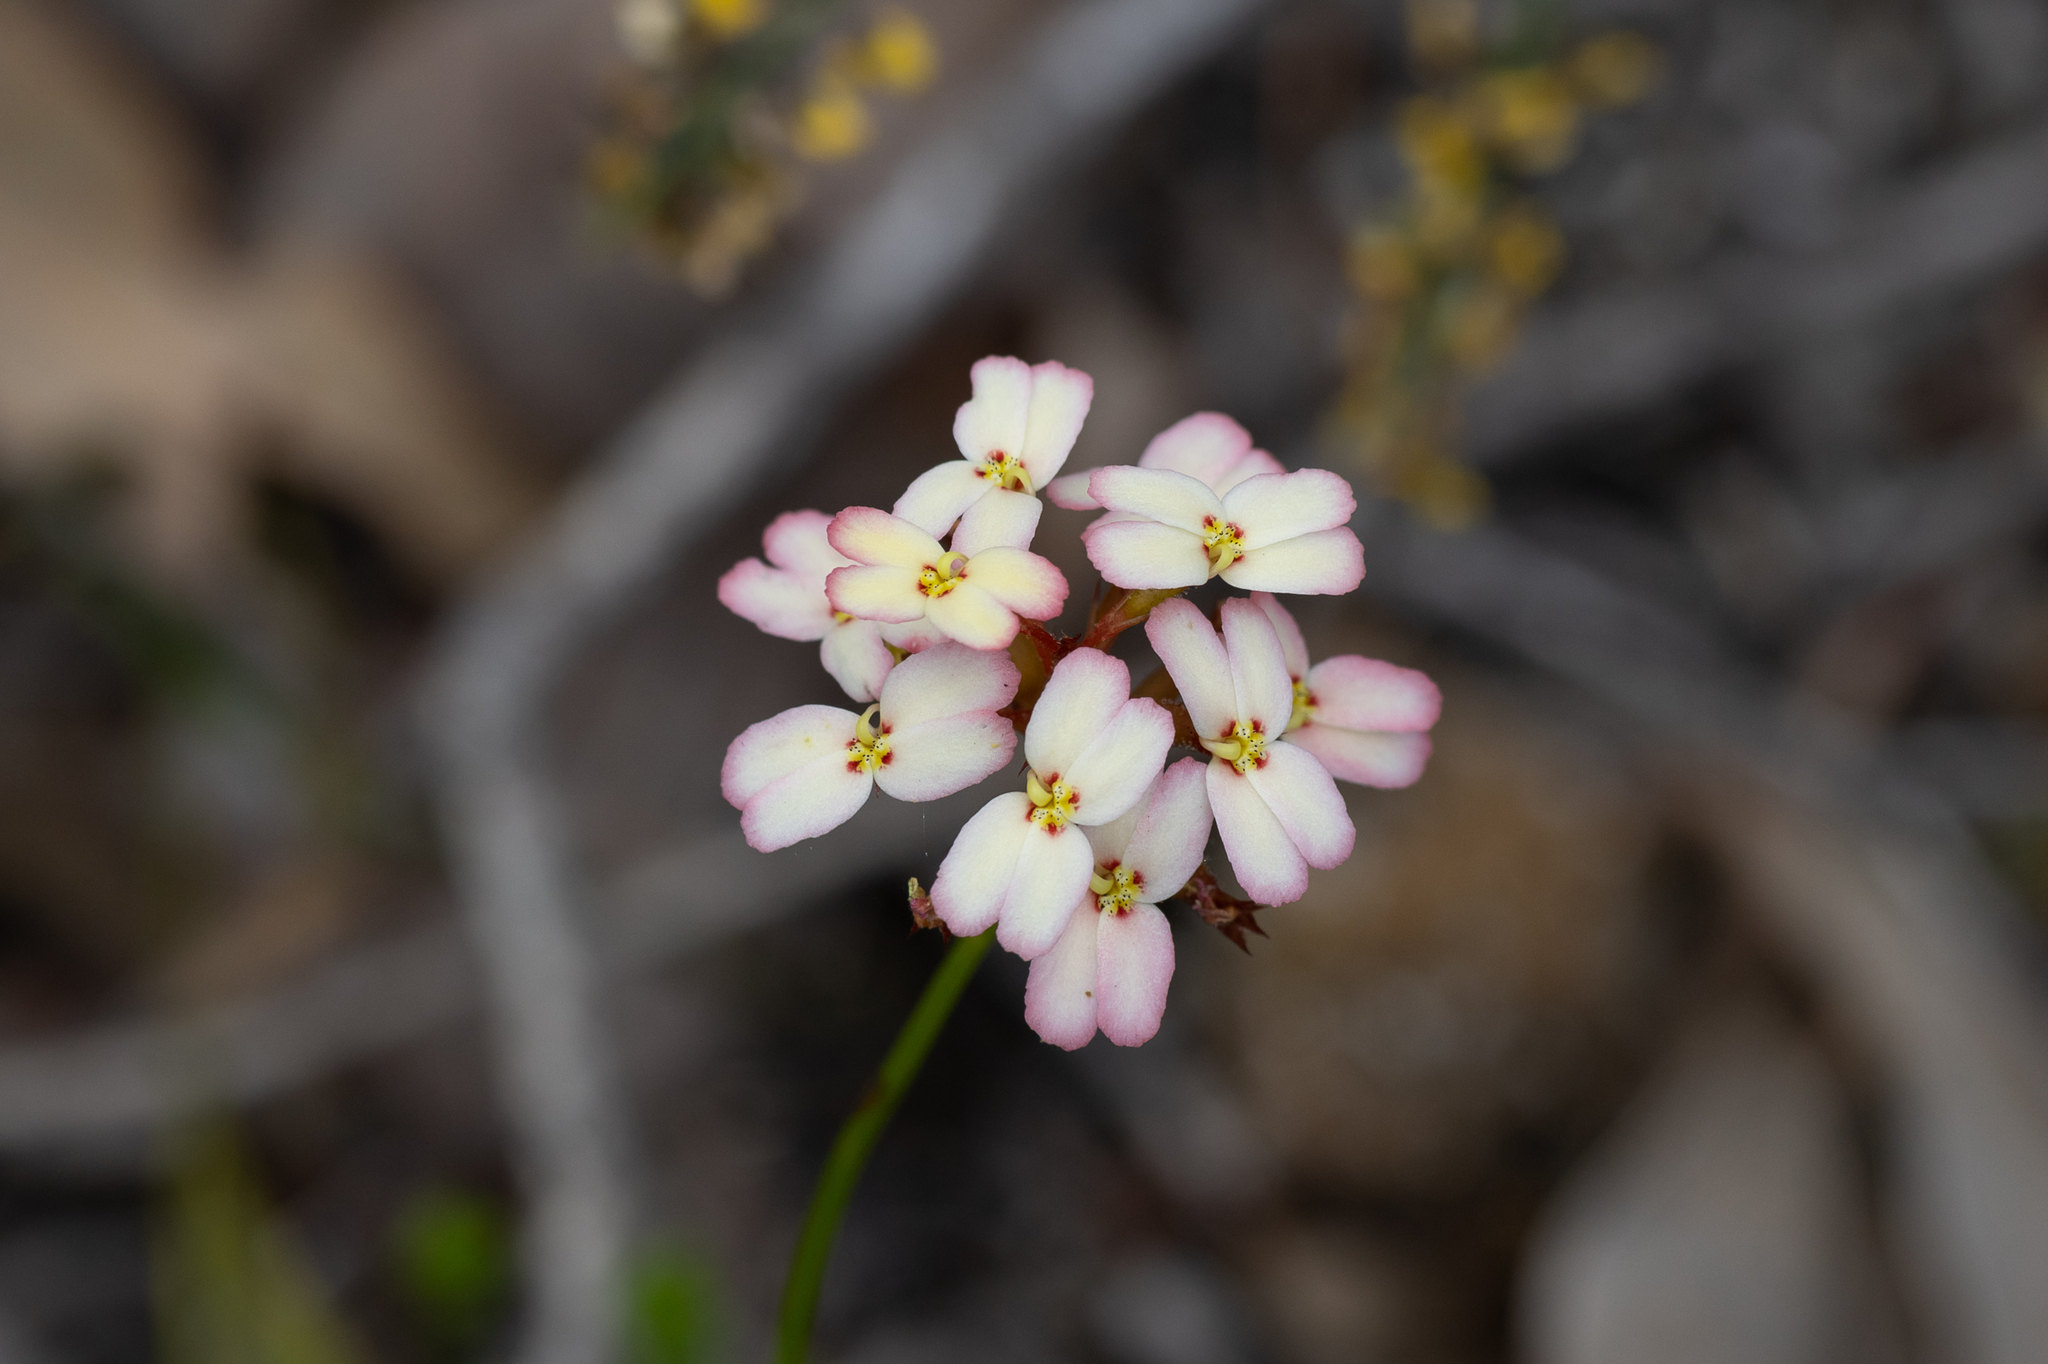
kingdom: Plantae
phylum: Tracheophyta
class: Magnoliopsida
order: Asterales
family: Stylidiaceae
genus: Stylidium
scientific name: Stylidium junceum
